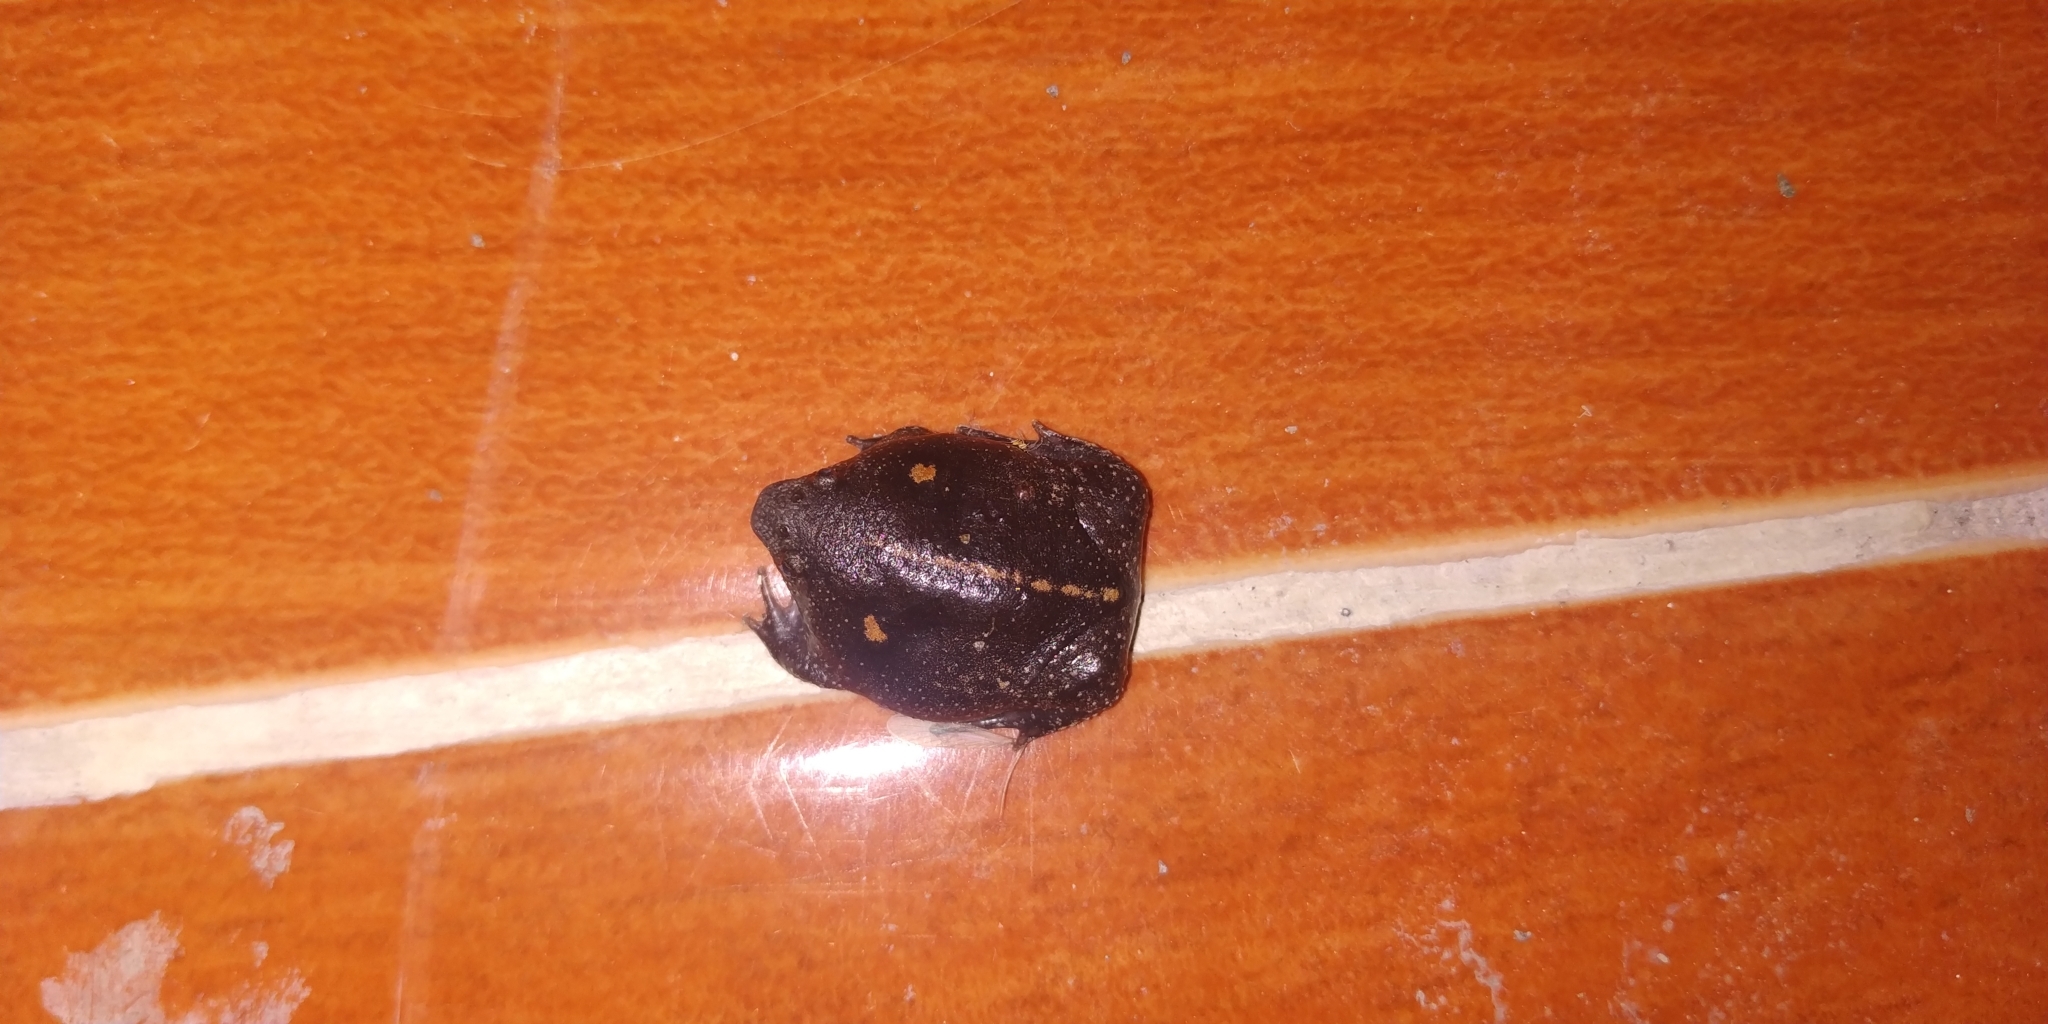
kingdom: Animalia
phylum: Chordata
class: Amphibia
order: Anura
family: Rhinophrynidae
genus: Rhinophrynus
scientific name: Rhinophrynus dorsalis
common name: Mexican burrowing toad
